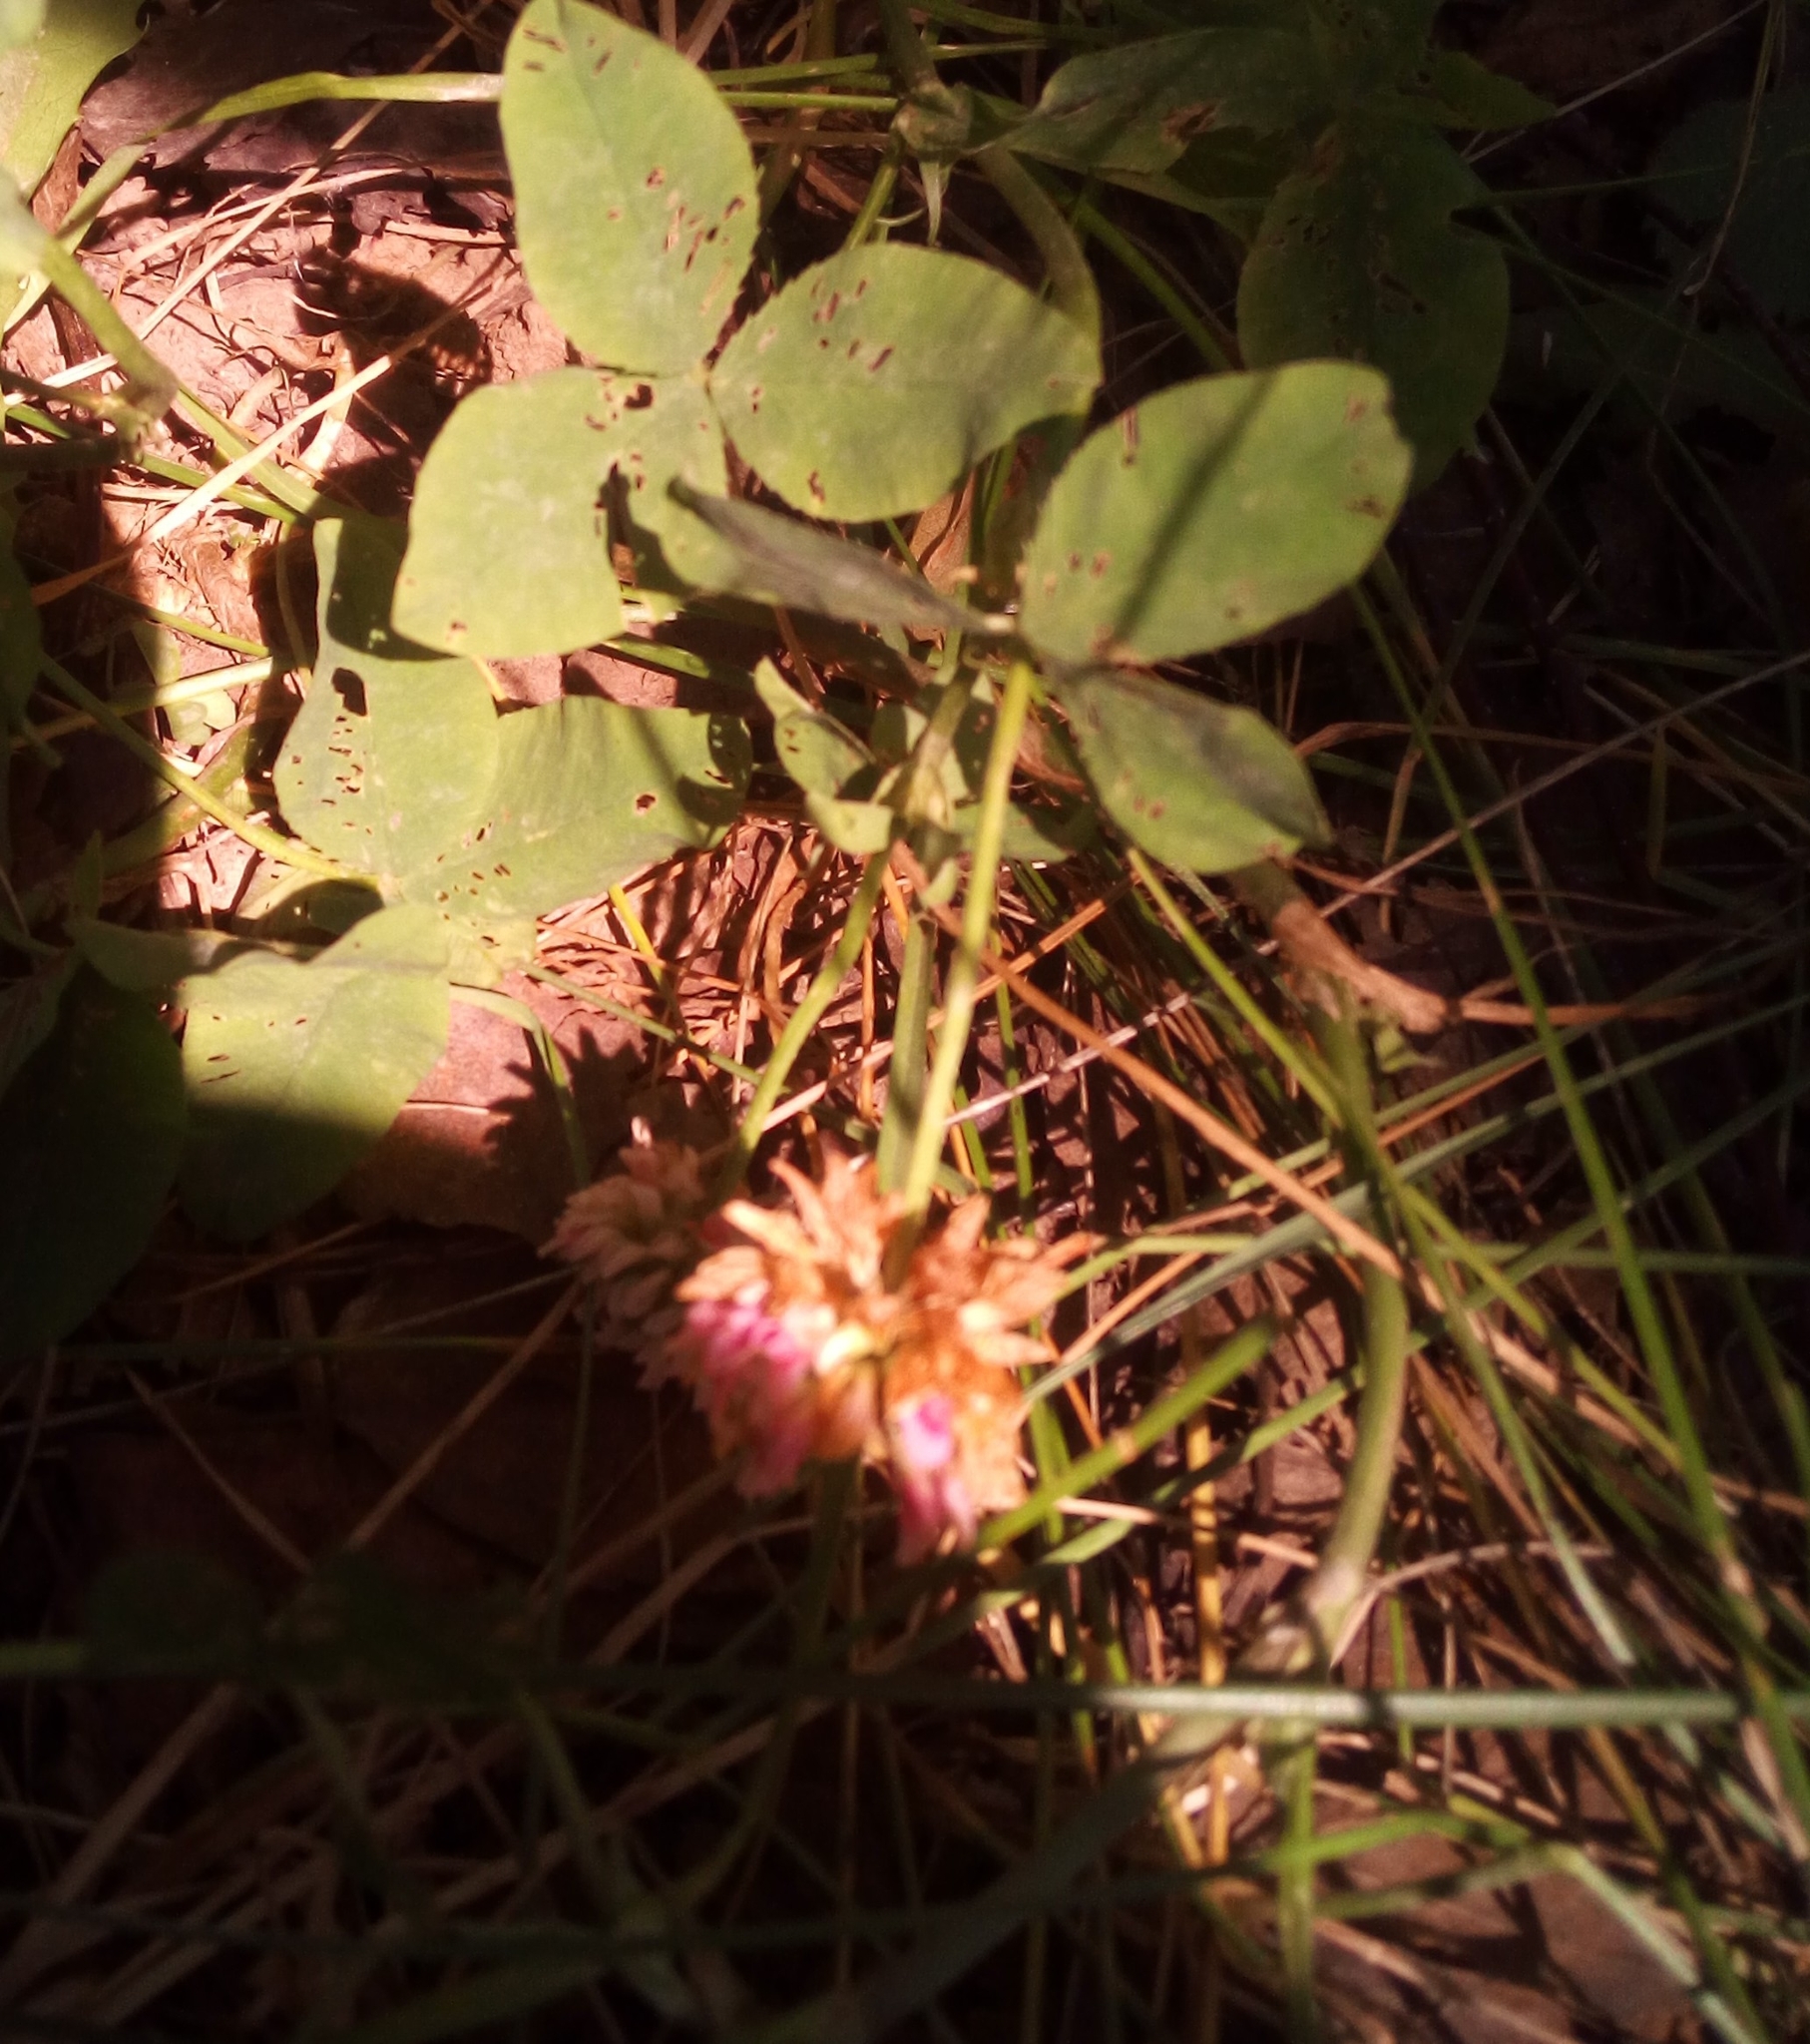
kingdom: Plantae
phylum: Tracheophyta
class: Magnoliopsida
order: Fabales
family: Fabaceae
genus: Trifolium
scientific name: Trifolium hybridum
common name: Alsike clover
